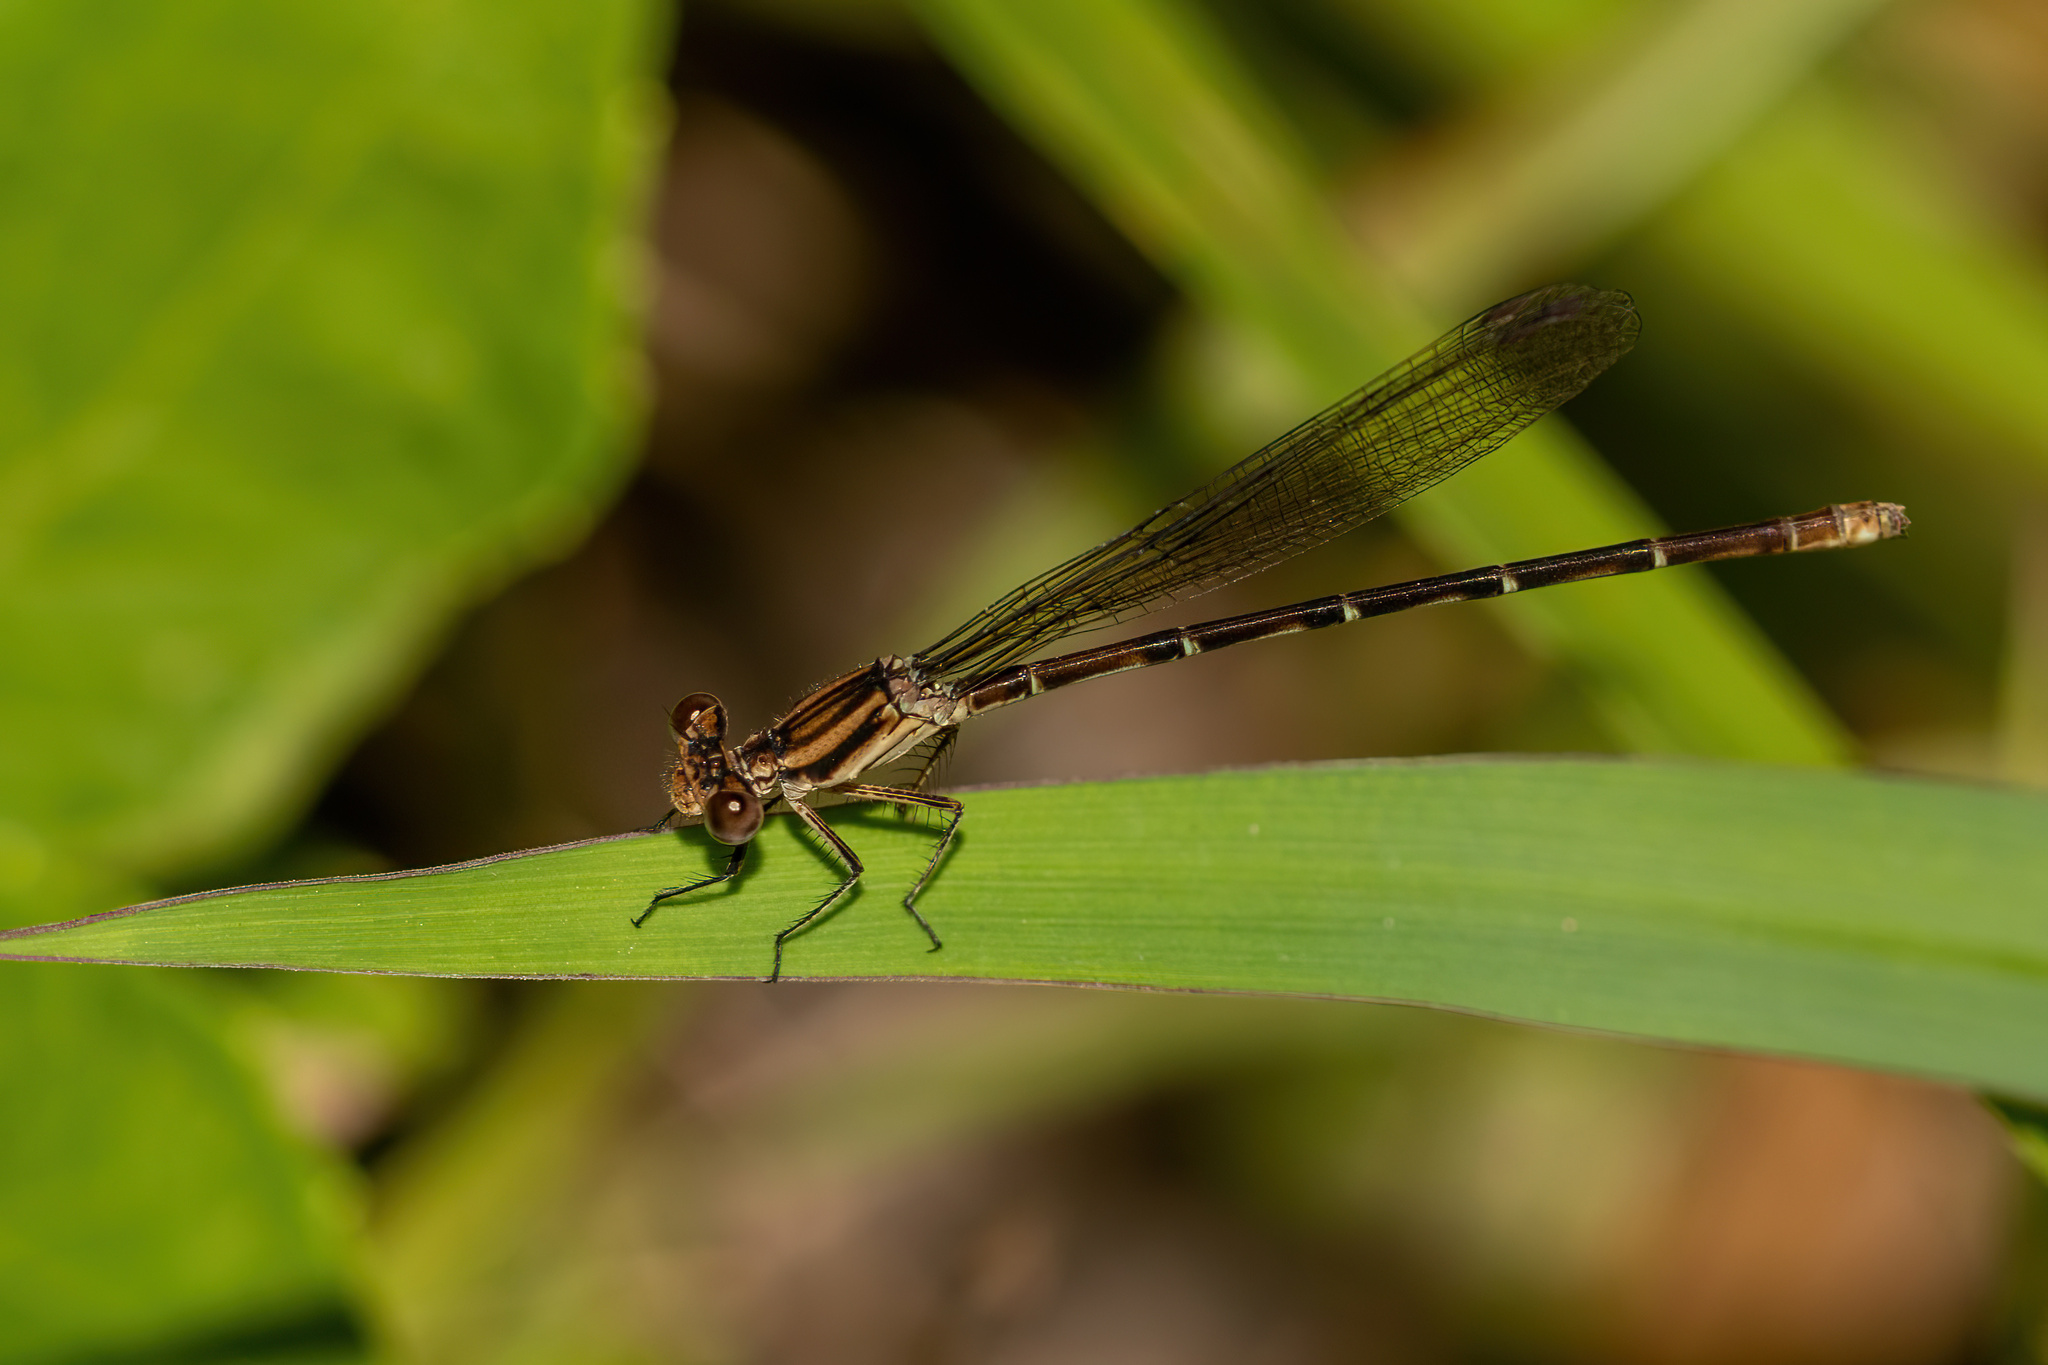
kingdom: Animalia
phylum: Arthropoda
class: Insecta
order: Odonata
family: Coenagrionidae
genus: Argia
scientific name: Argia sedula
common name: Blue-ringed dancer
